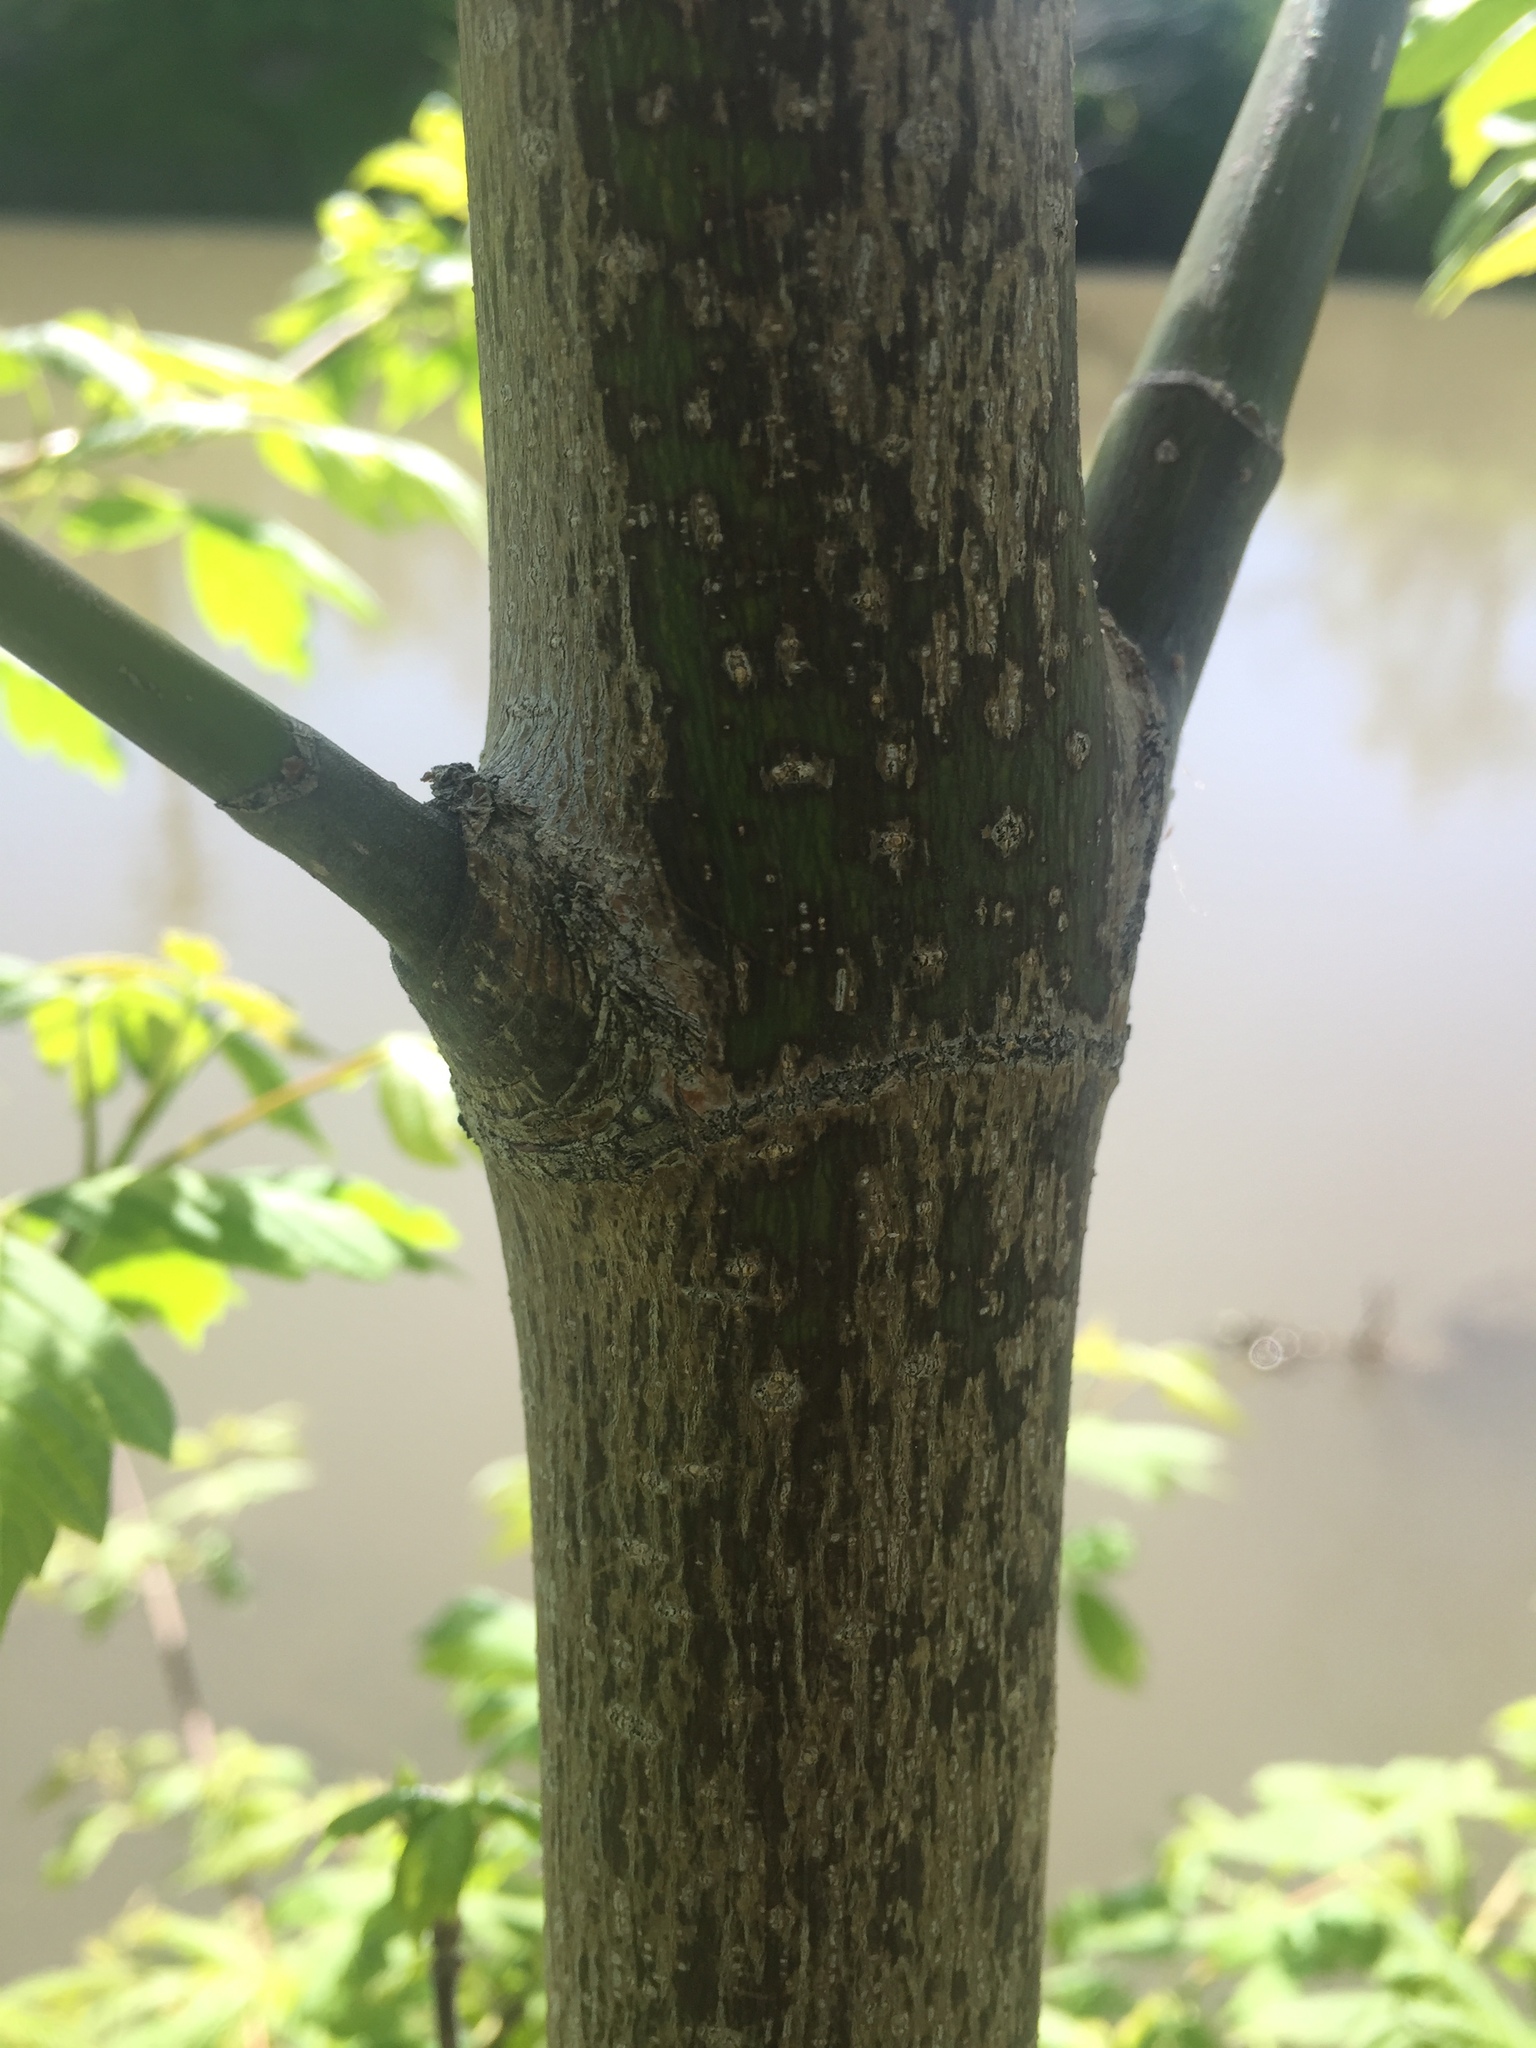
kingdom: Plantae
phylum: Tracheophyta
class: Magnoliopsida
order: Sapindales
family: Sapindaceae
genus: Acer
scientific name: Acer negundo
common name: Ashleaf maple
